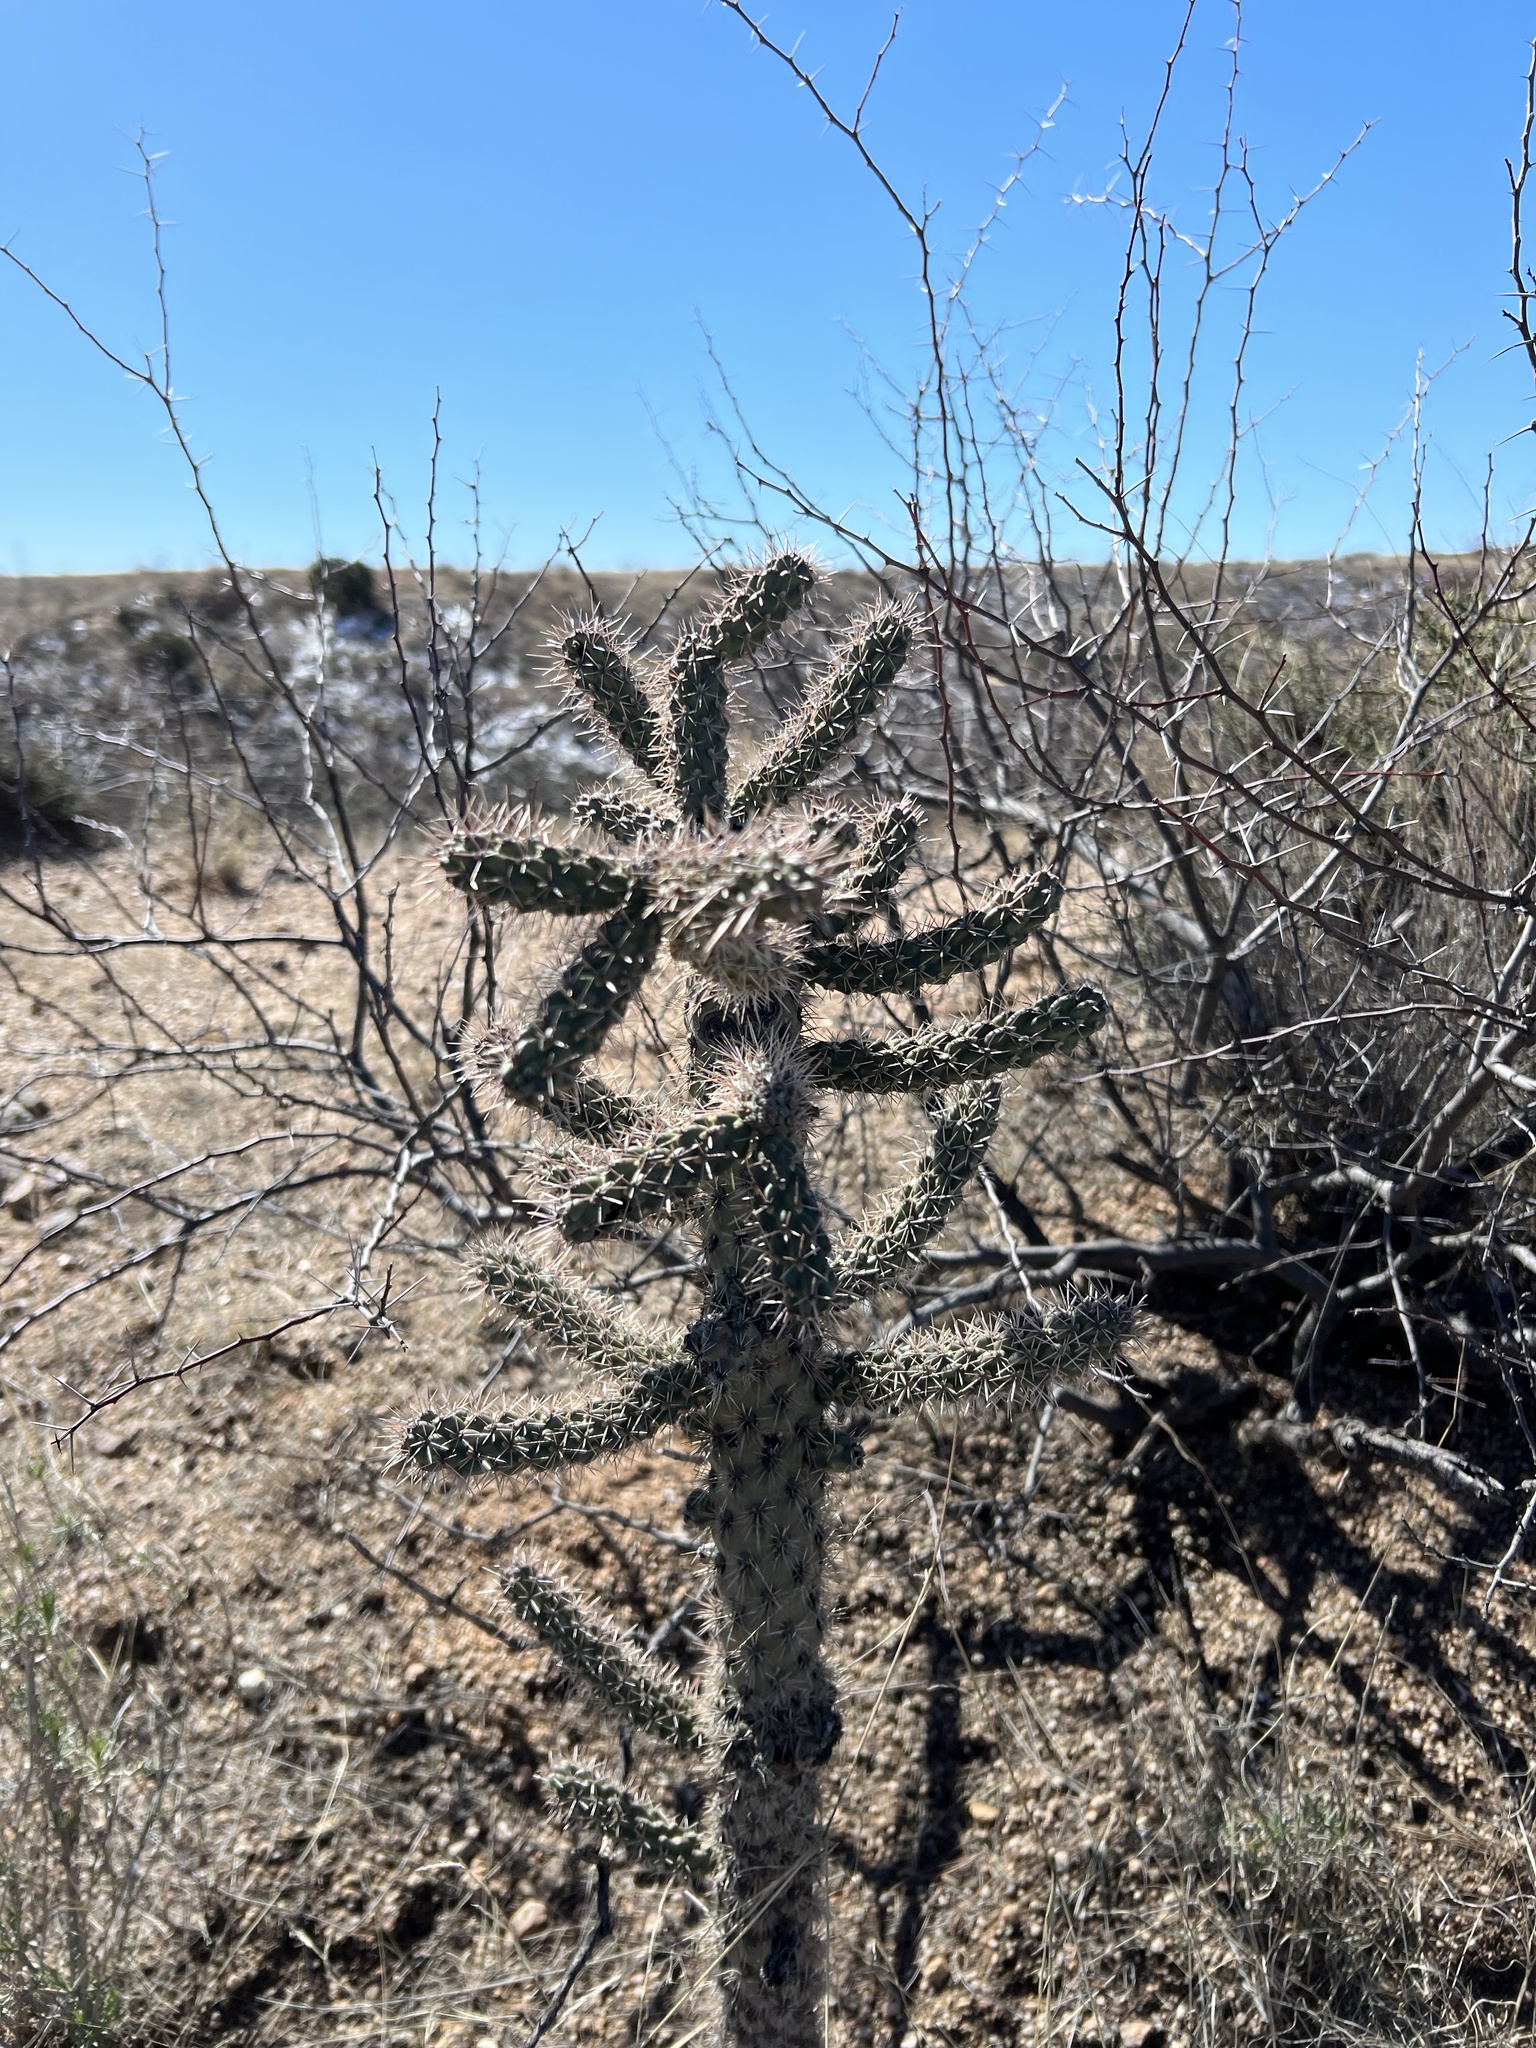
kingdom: Plantae
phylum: Tracheophyta
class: Magnoliopsida
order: Caryophyllales
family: Cactaceae
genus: Cylindropuntia
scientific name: Cylindropuntia imbricata
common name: Candelabrum cactus
